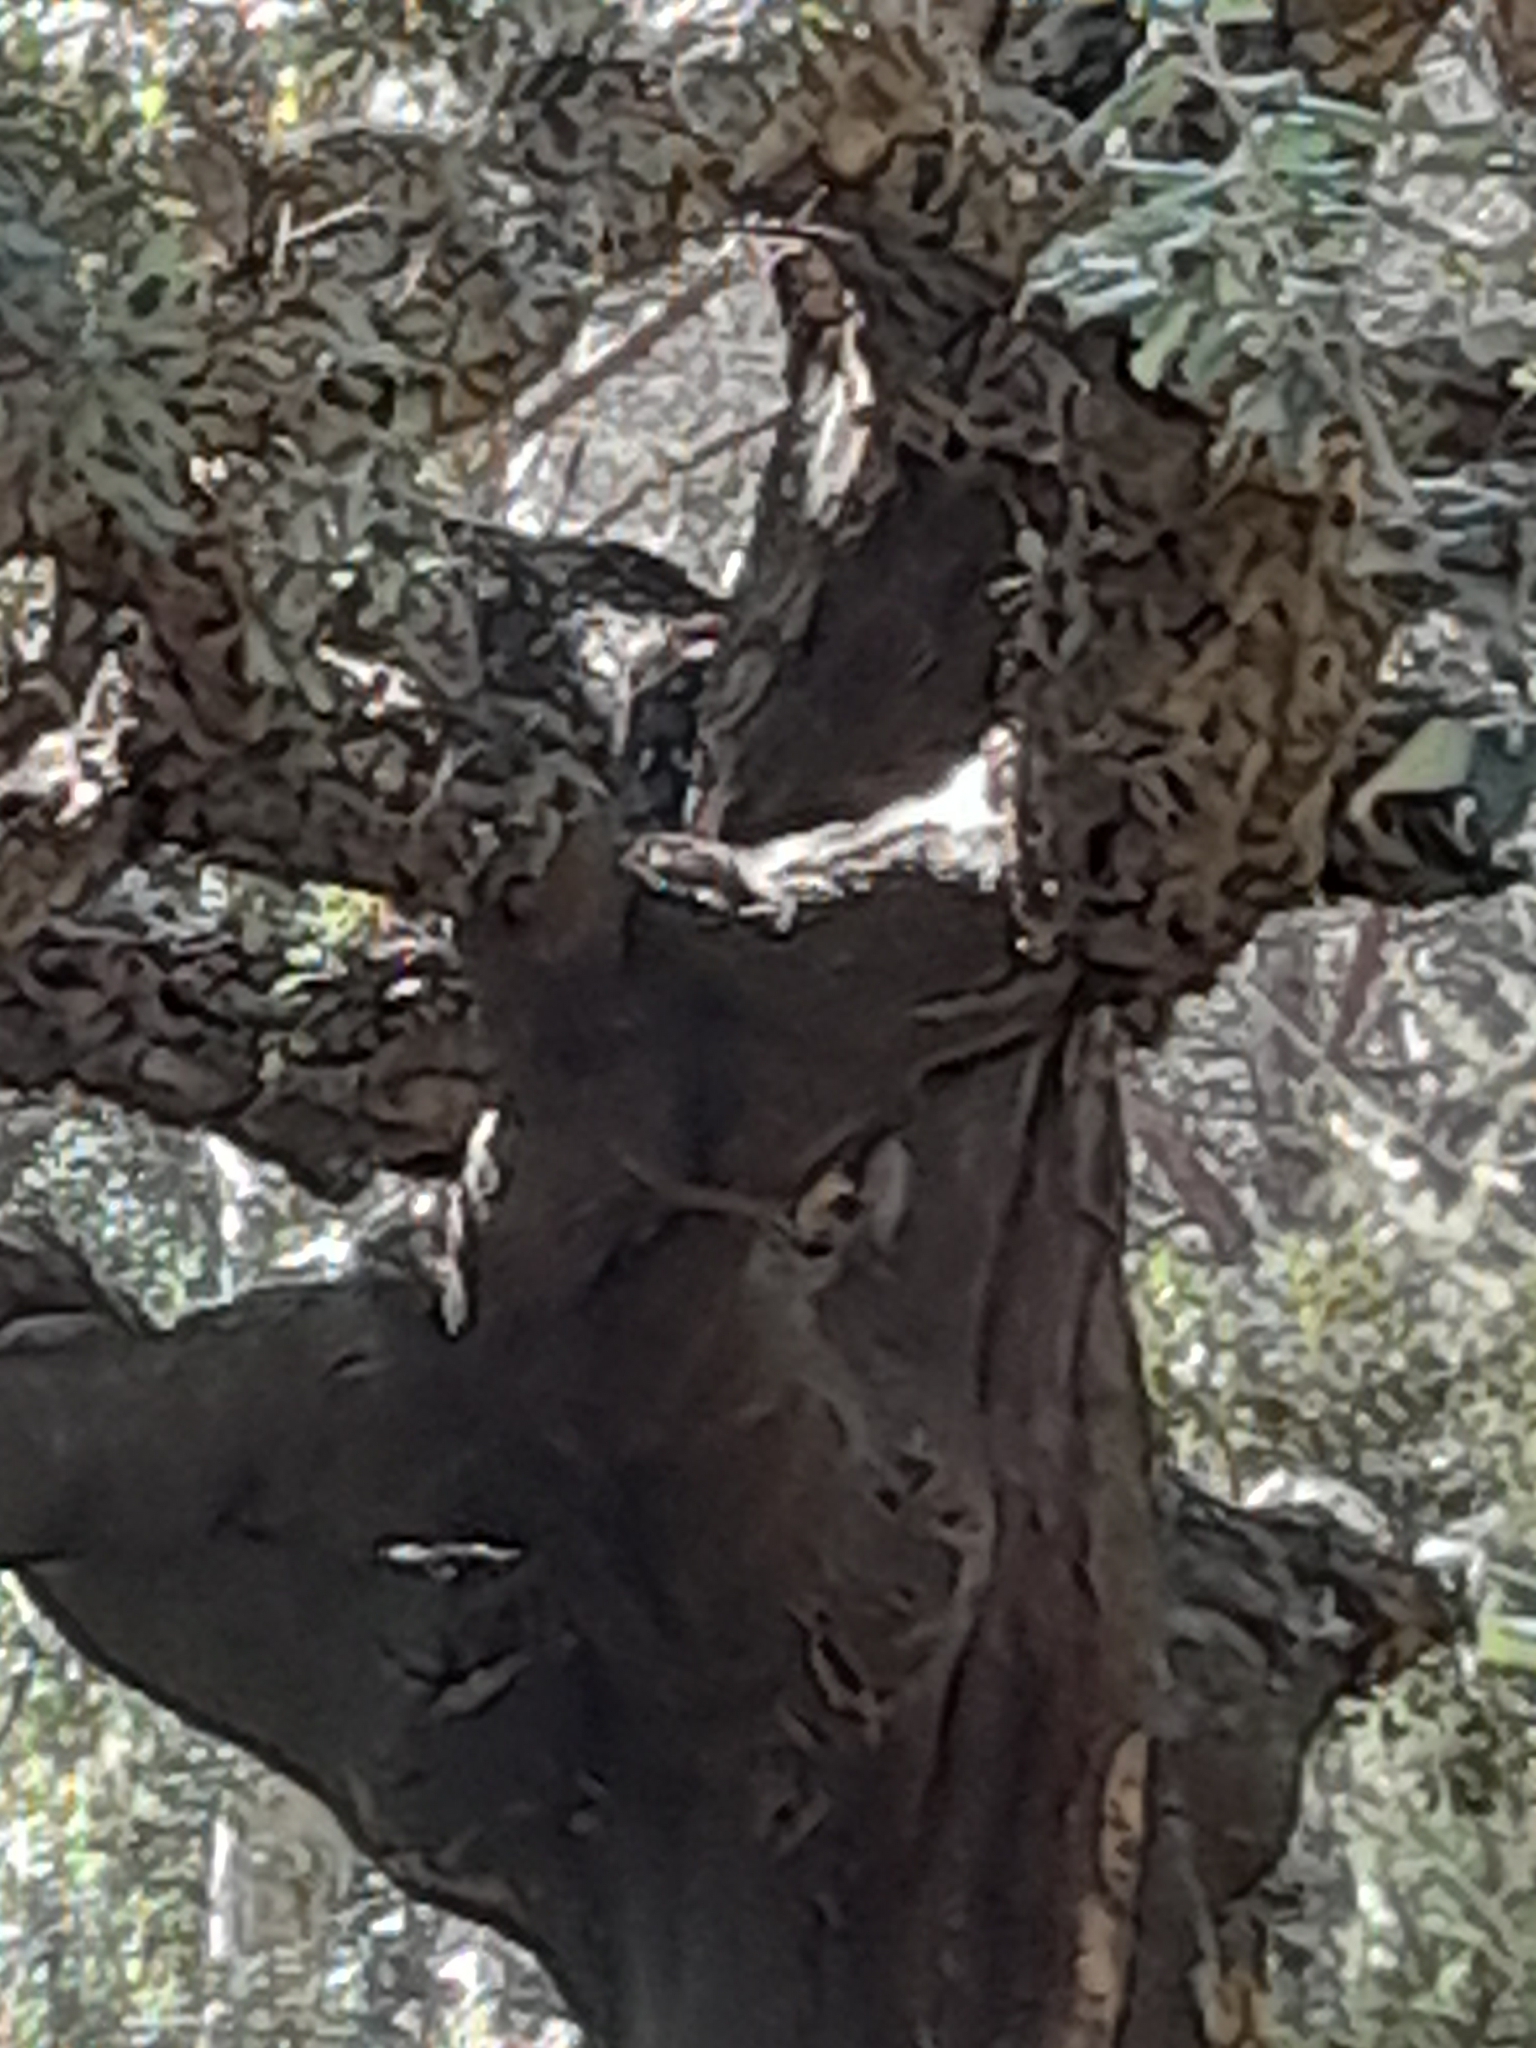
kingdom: Plantae
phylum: Tracheophyta
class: Magnoliopsida
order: Fagales
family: Fagaceae
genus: Quercus
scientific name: Quercus suber
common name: Cork oak
